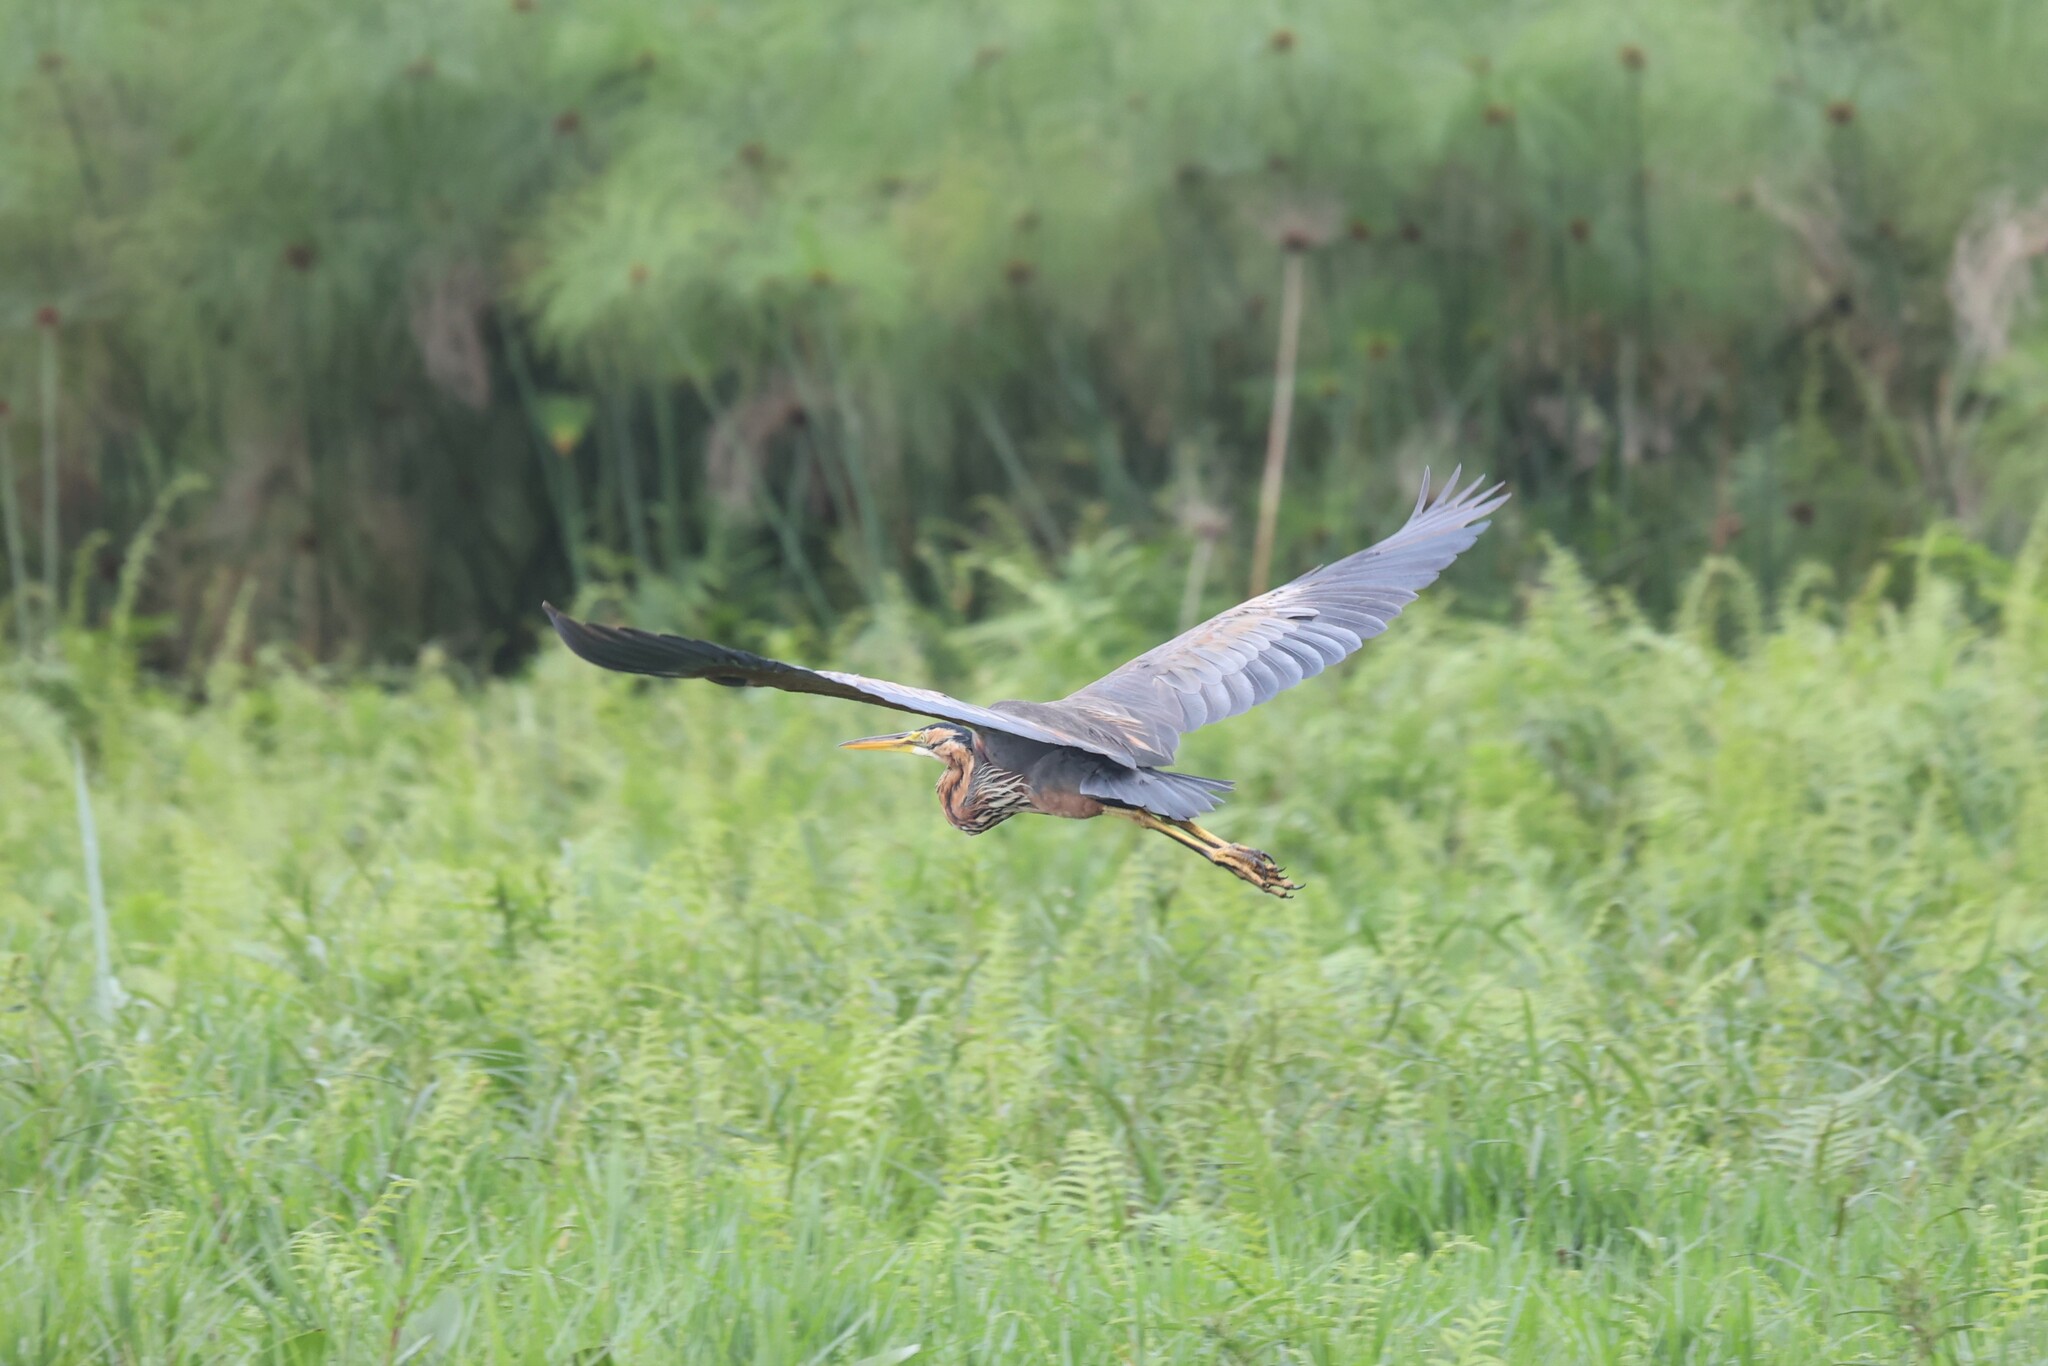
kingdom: Animalia
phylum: Chordata
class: Aves
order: Pelecaniformes
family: Ardeidae
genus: Ardea
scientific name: Ardea purpurea
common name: Purple heron
